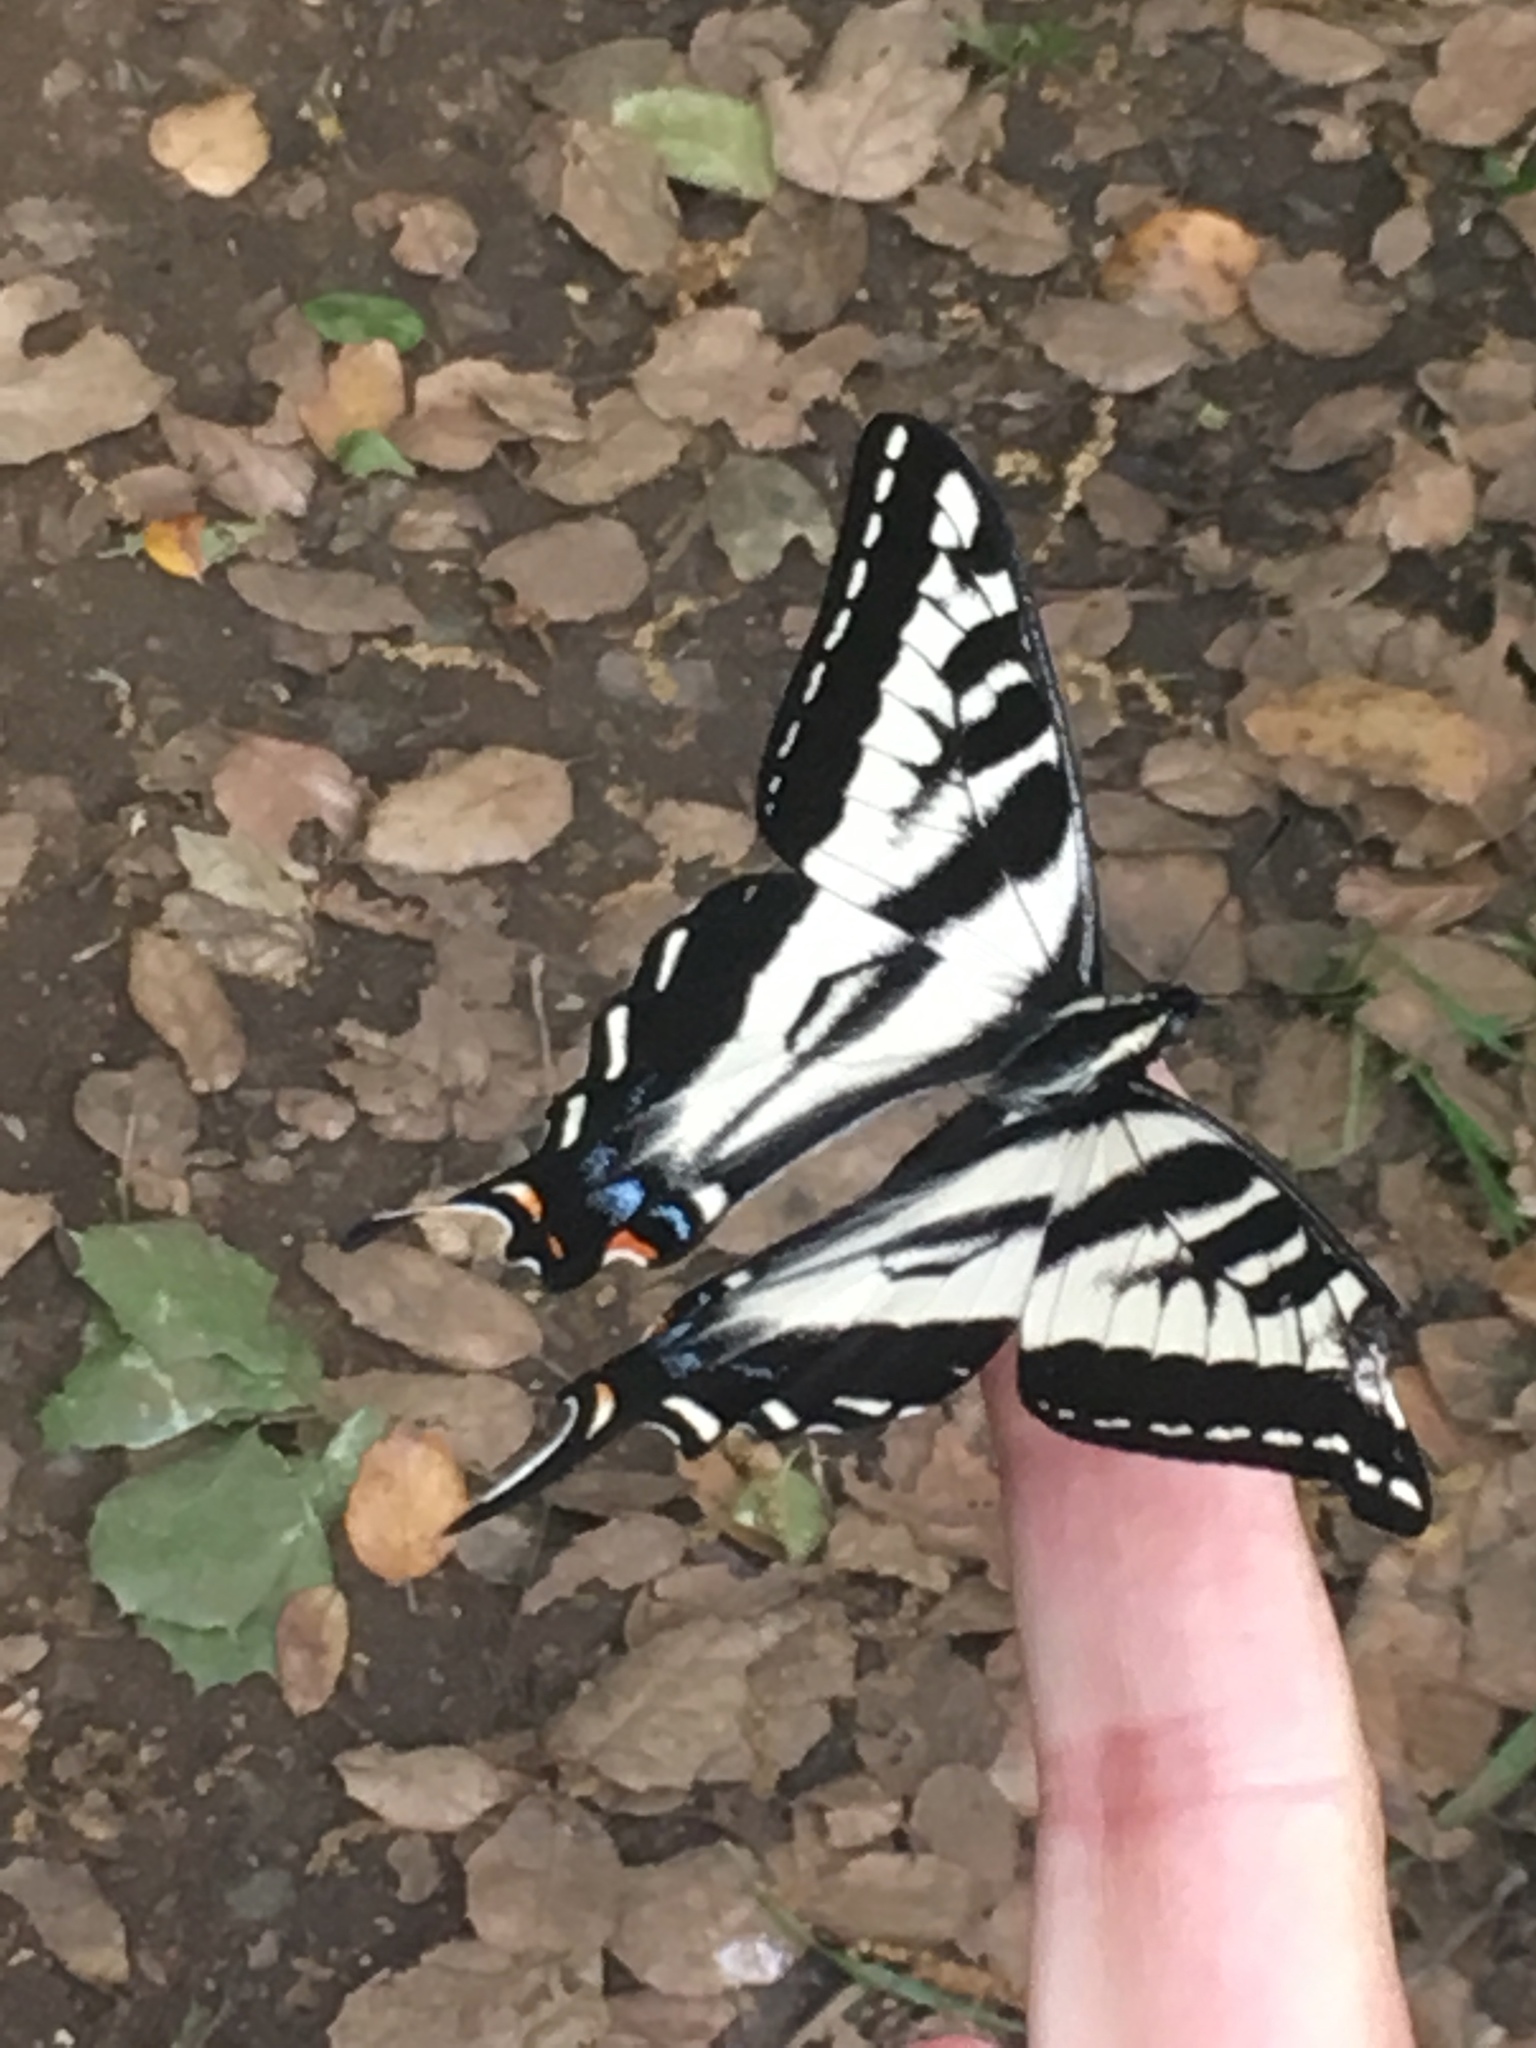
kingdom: Animalia
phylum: Arthropoda
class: Insecta
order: Lepidoptera
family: Papilionidae
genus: Papilio
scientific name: Papilio eurymedon
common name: Pale tiger swallowtail
